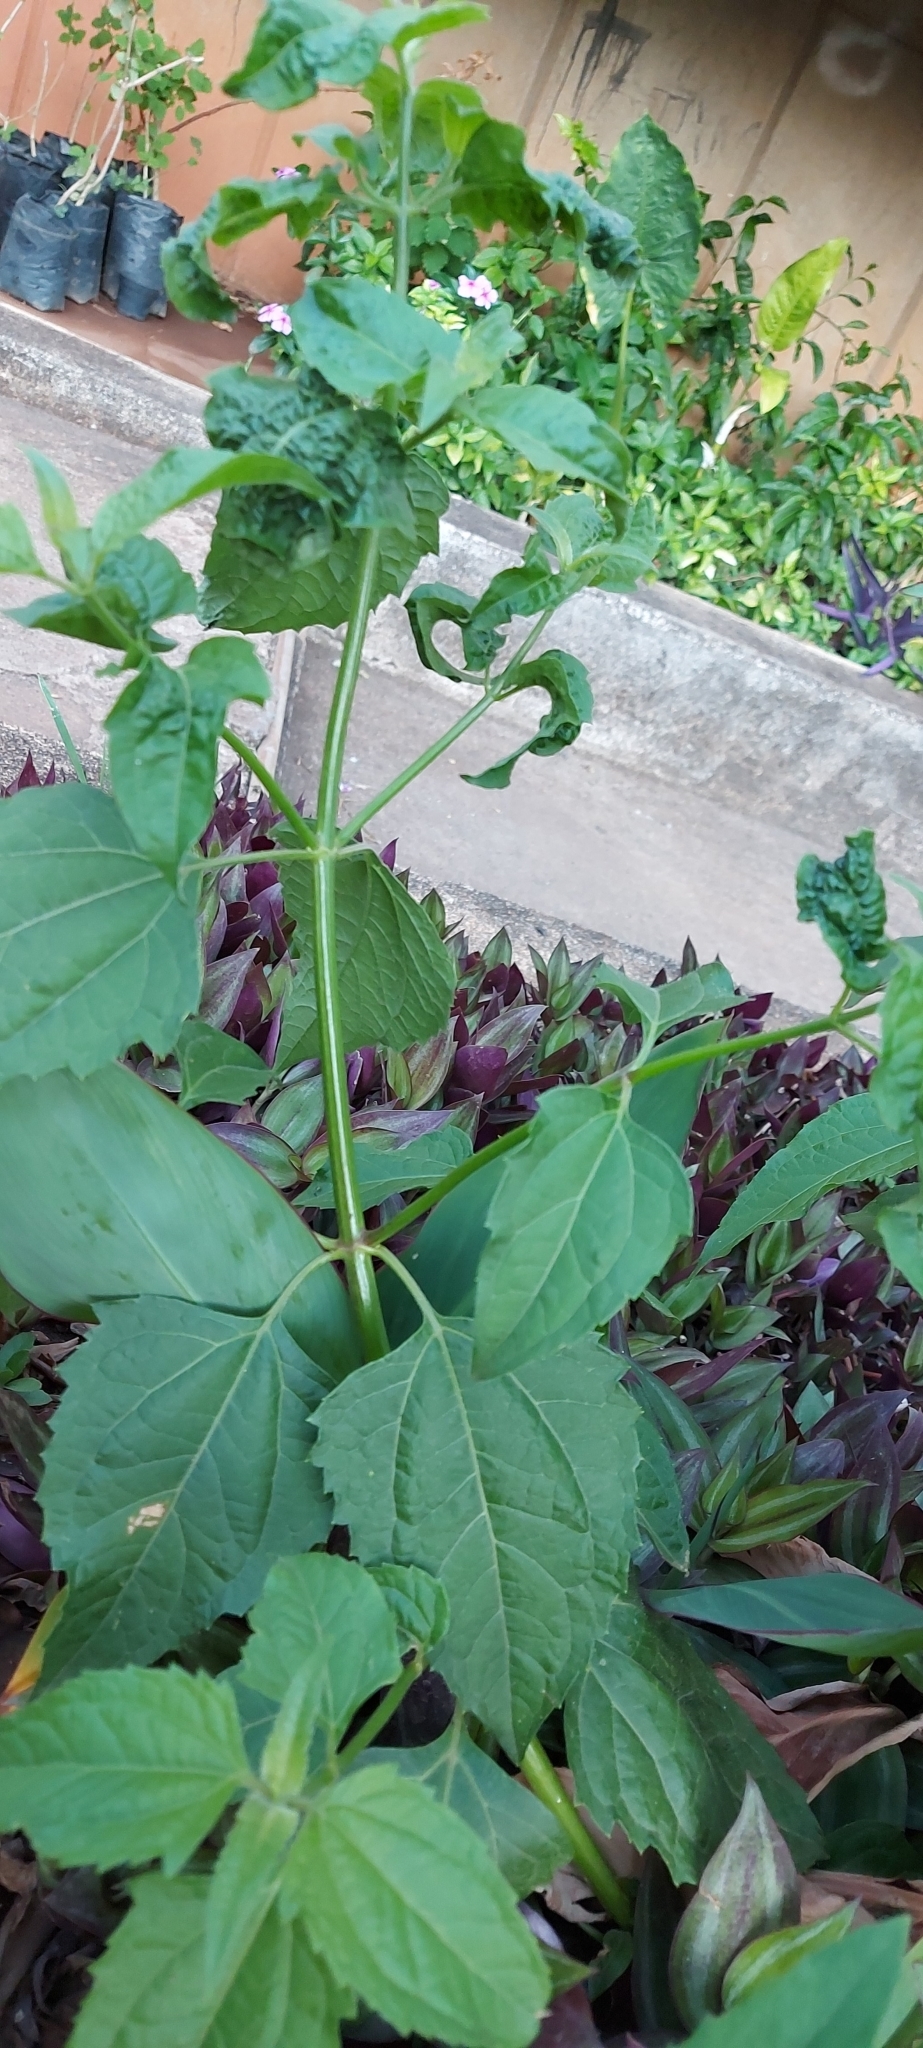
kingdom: Plantae
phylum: Tracheophyta
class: Magnoliopsida
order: Asterales
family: Asteraceae
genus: Chromolaena
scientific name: Chromolaena odorata
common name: Siamweed
